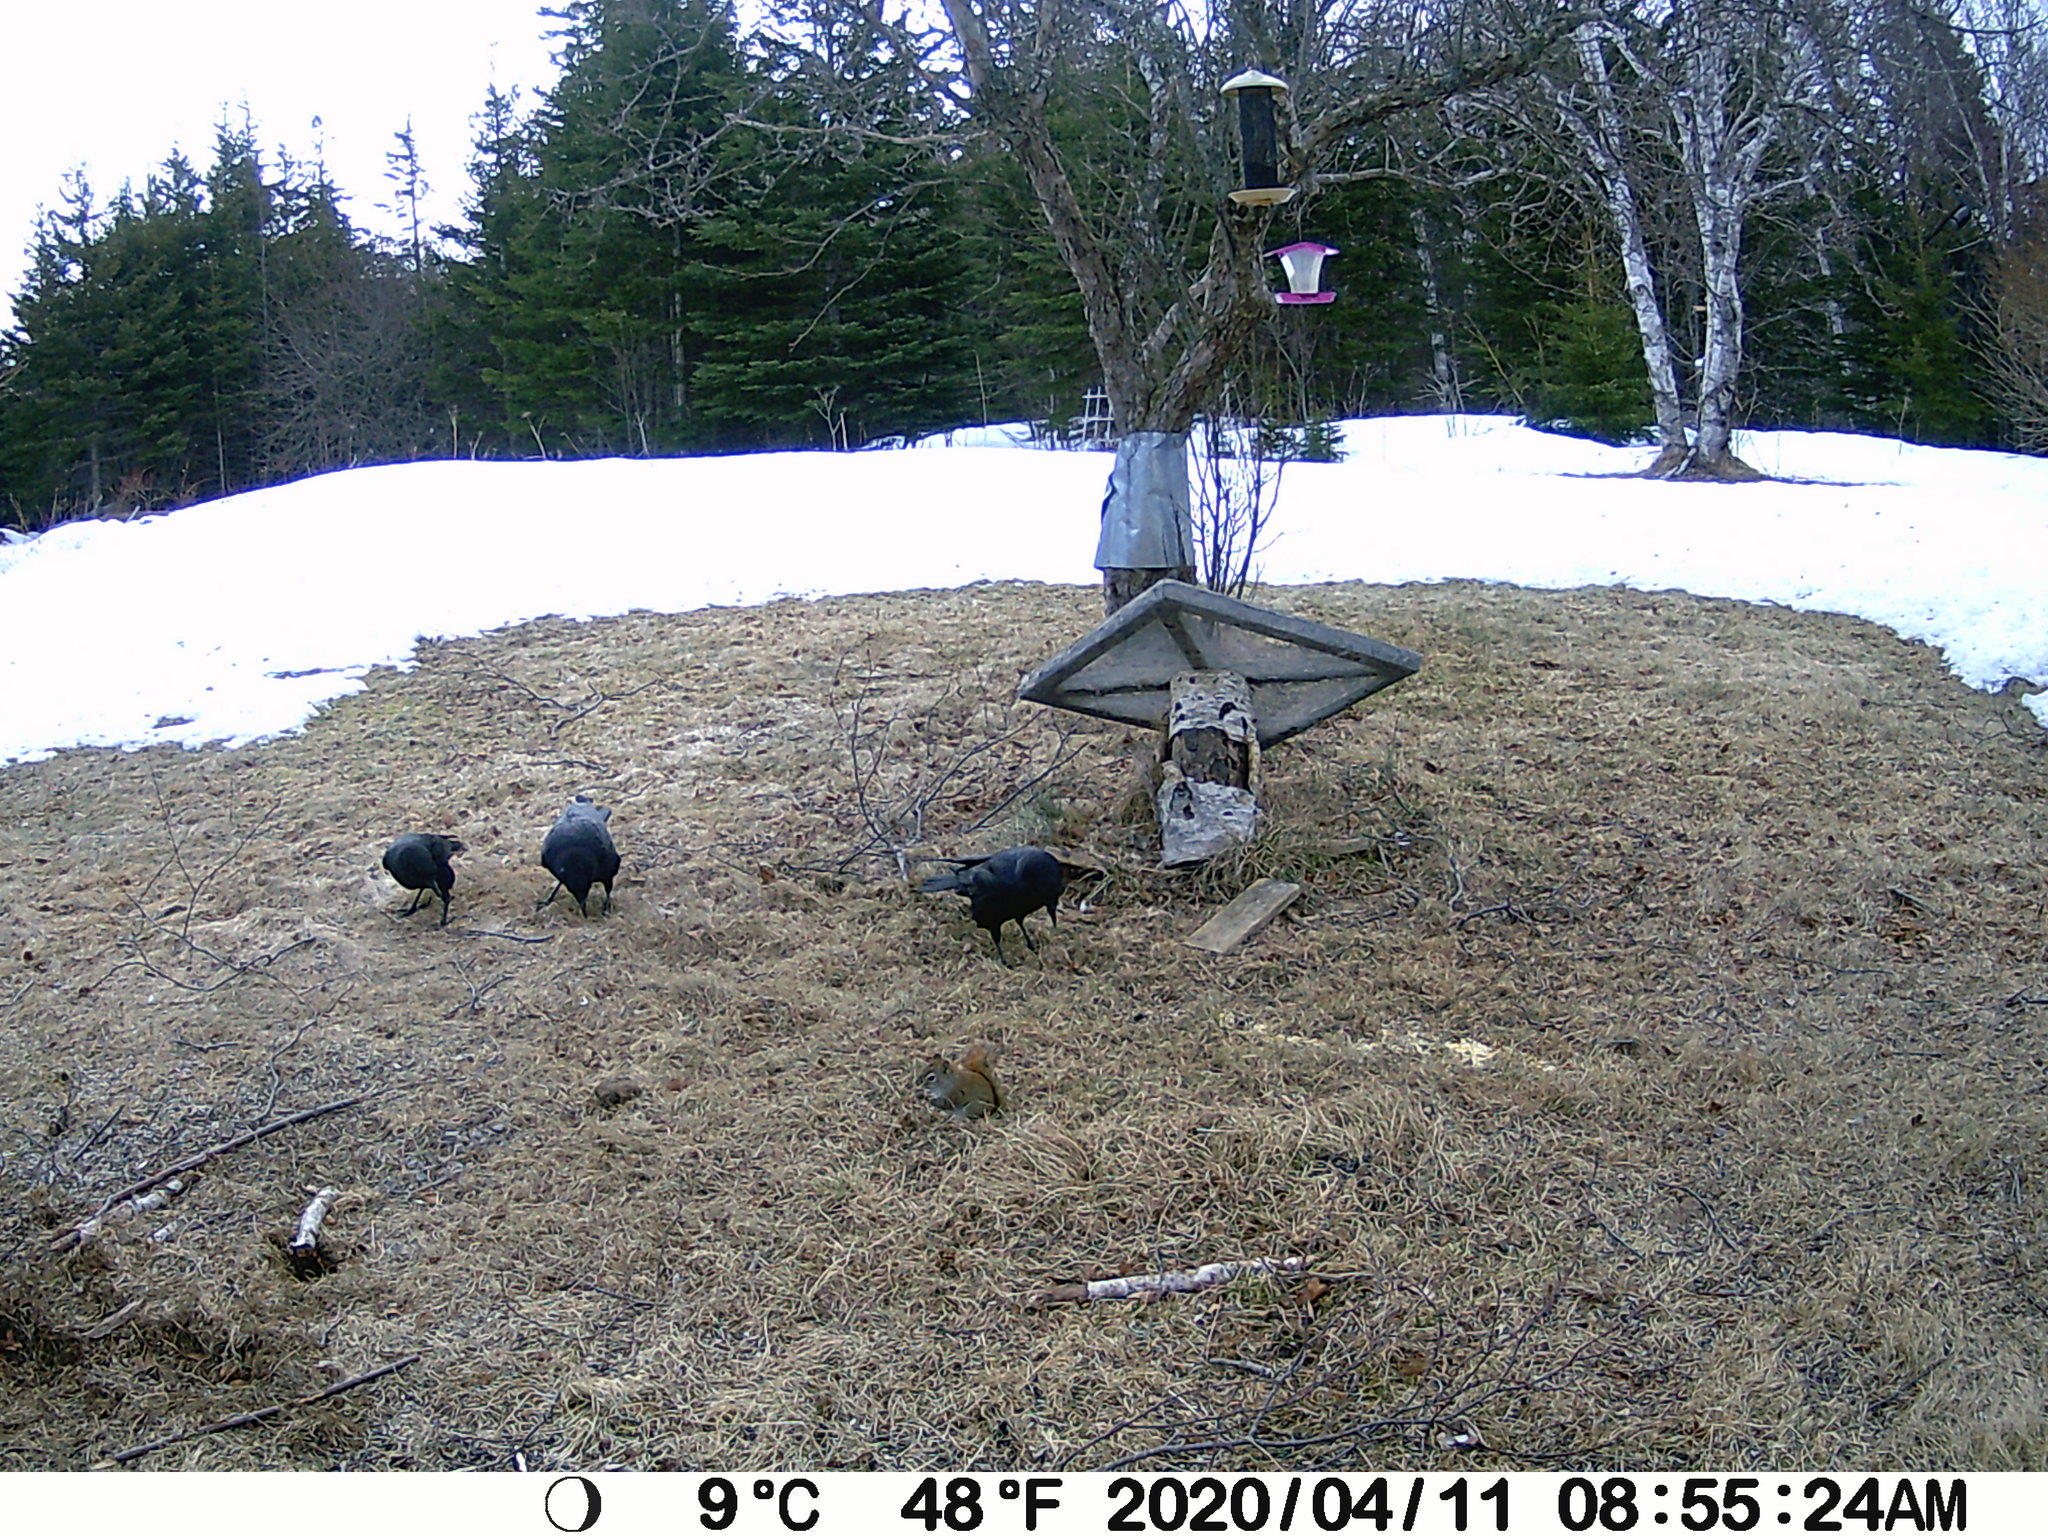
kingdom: Animalia
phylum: Chordata
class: Aves
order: Passeriformes
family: Corvidae
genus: Corvus
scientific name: Corvus brachyrhynchos
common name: American crow
